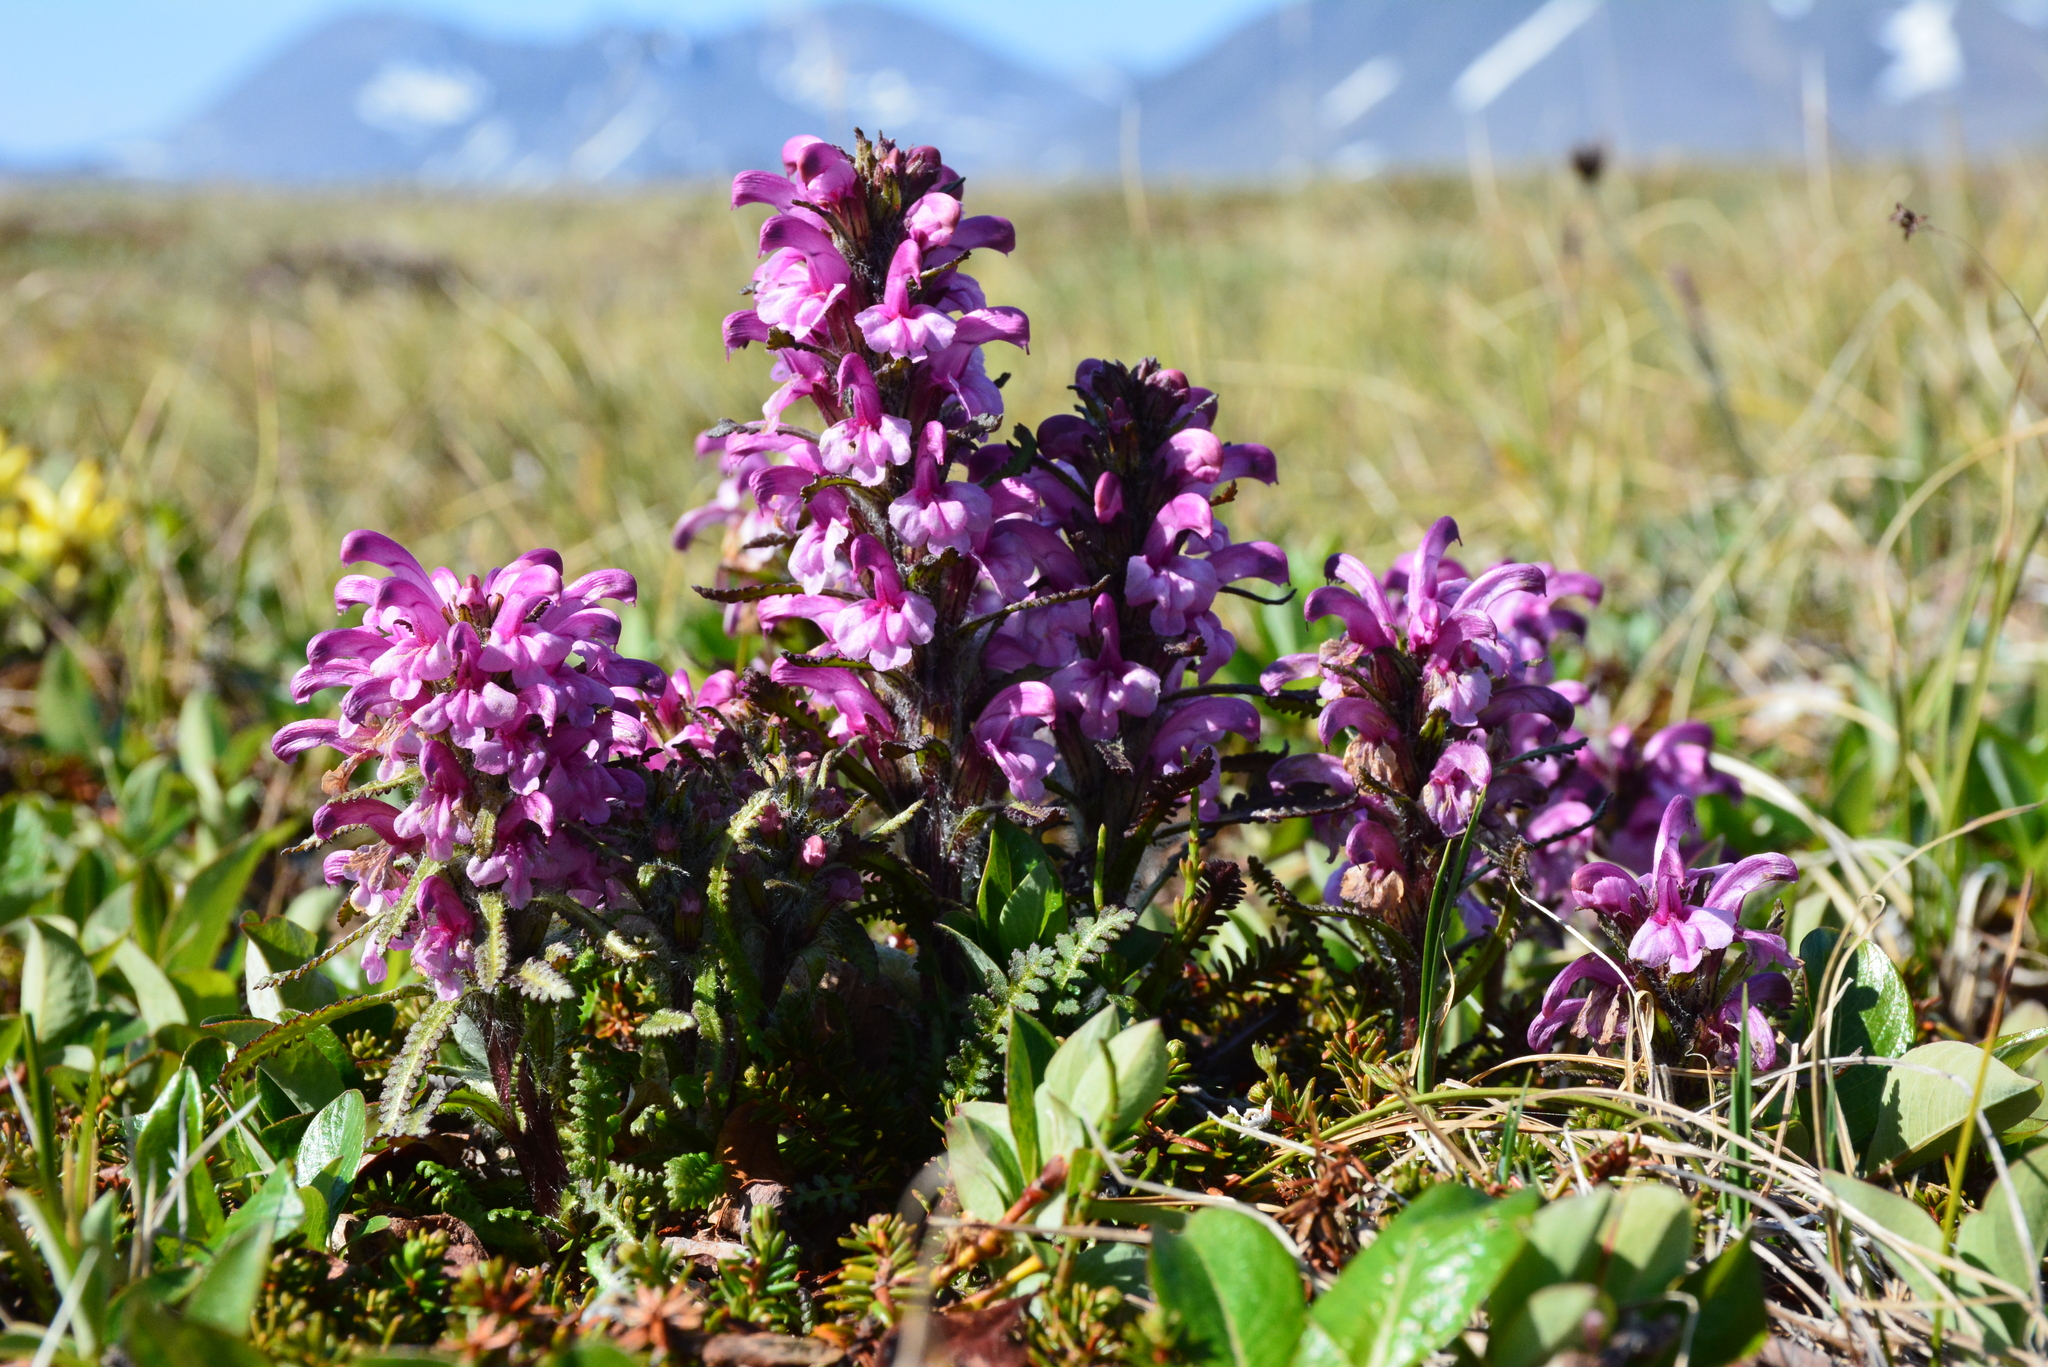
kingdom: Plantae
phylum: Tracheophyta
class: Magnoliopsida
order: Lamiales
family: Orobanchaceae
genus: Pedicularis
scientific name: Pedicularis langsdorffii
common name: Langsdorff's lousewort
